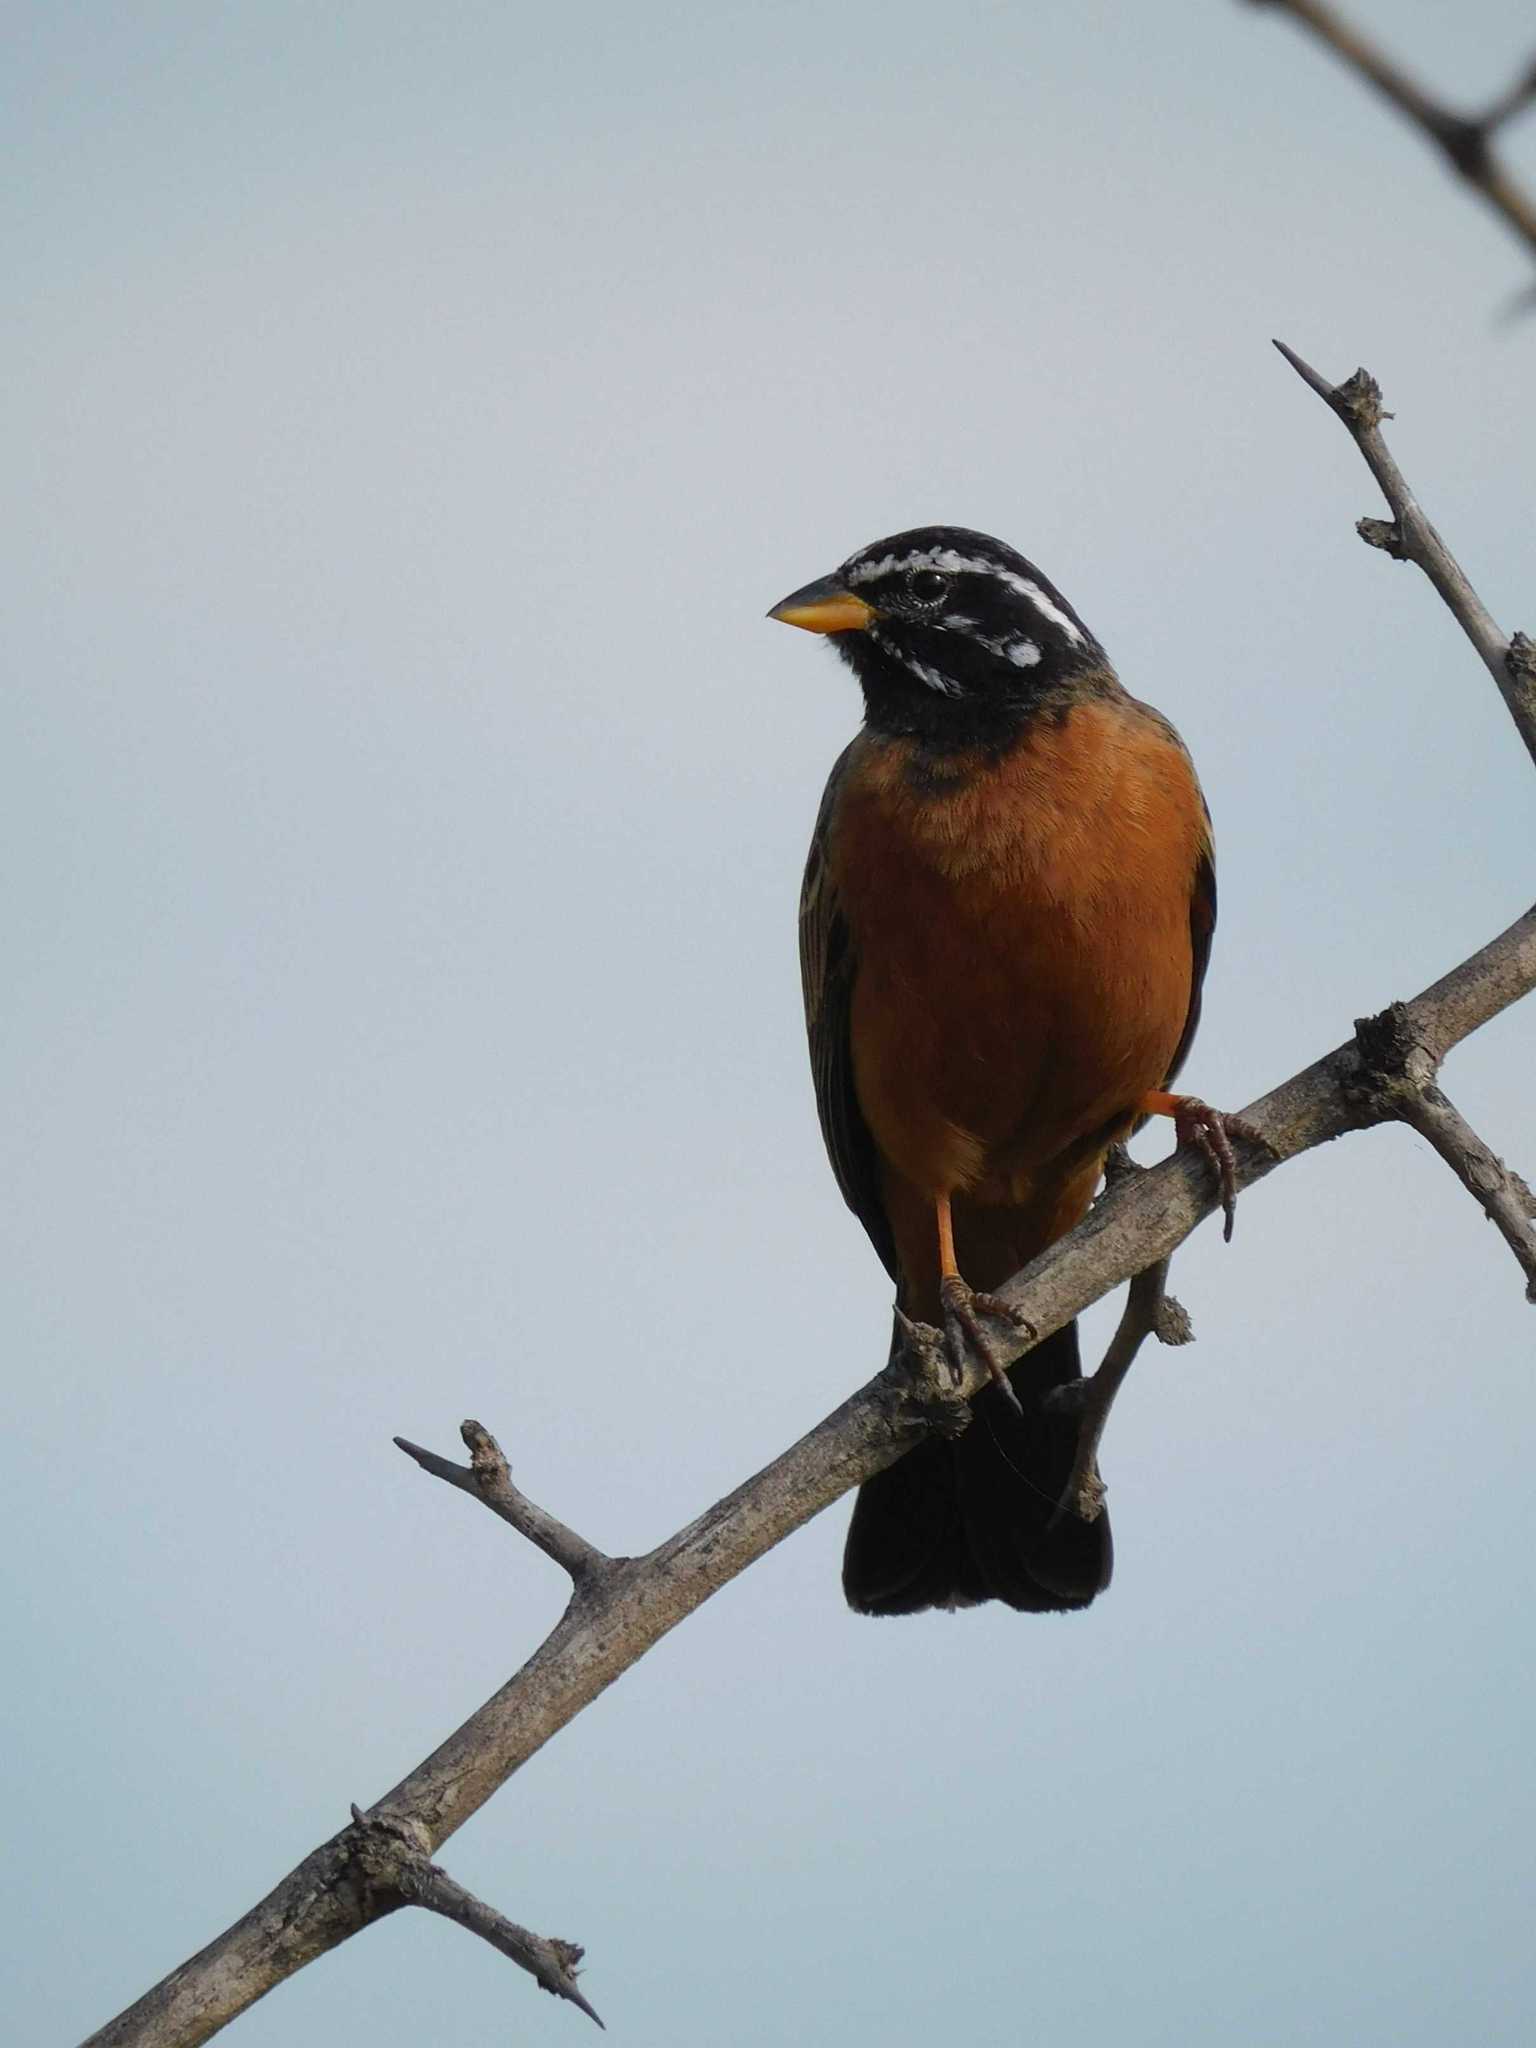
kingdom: Animalia
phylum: Chordata
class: Aves
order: Passeriformes
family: Emberizidae
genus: Emberiza
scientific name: Emberiza tahapisi
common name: Cinnamon-breasted bunting
